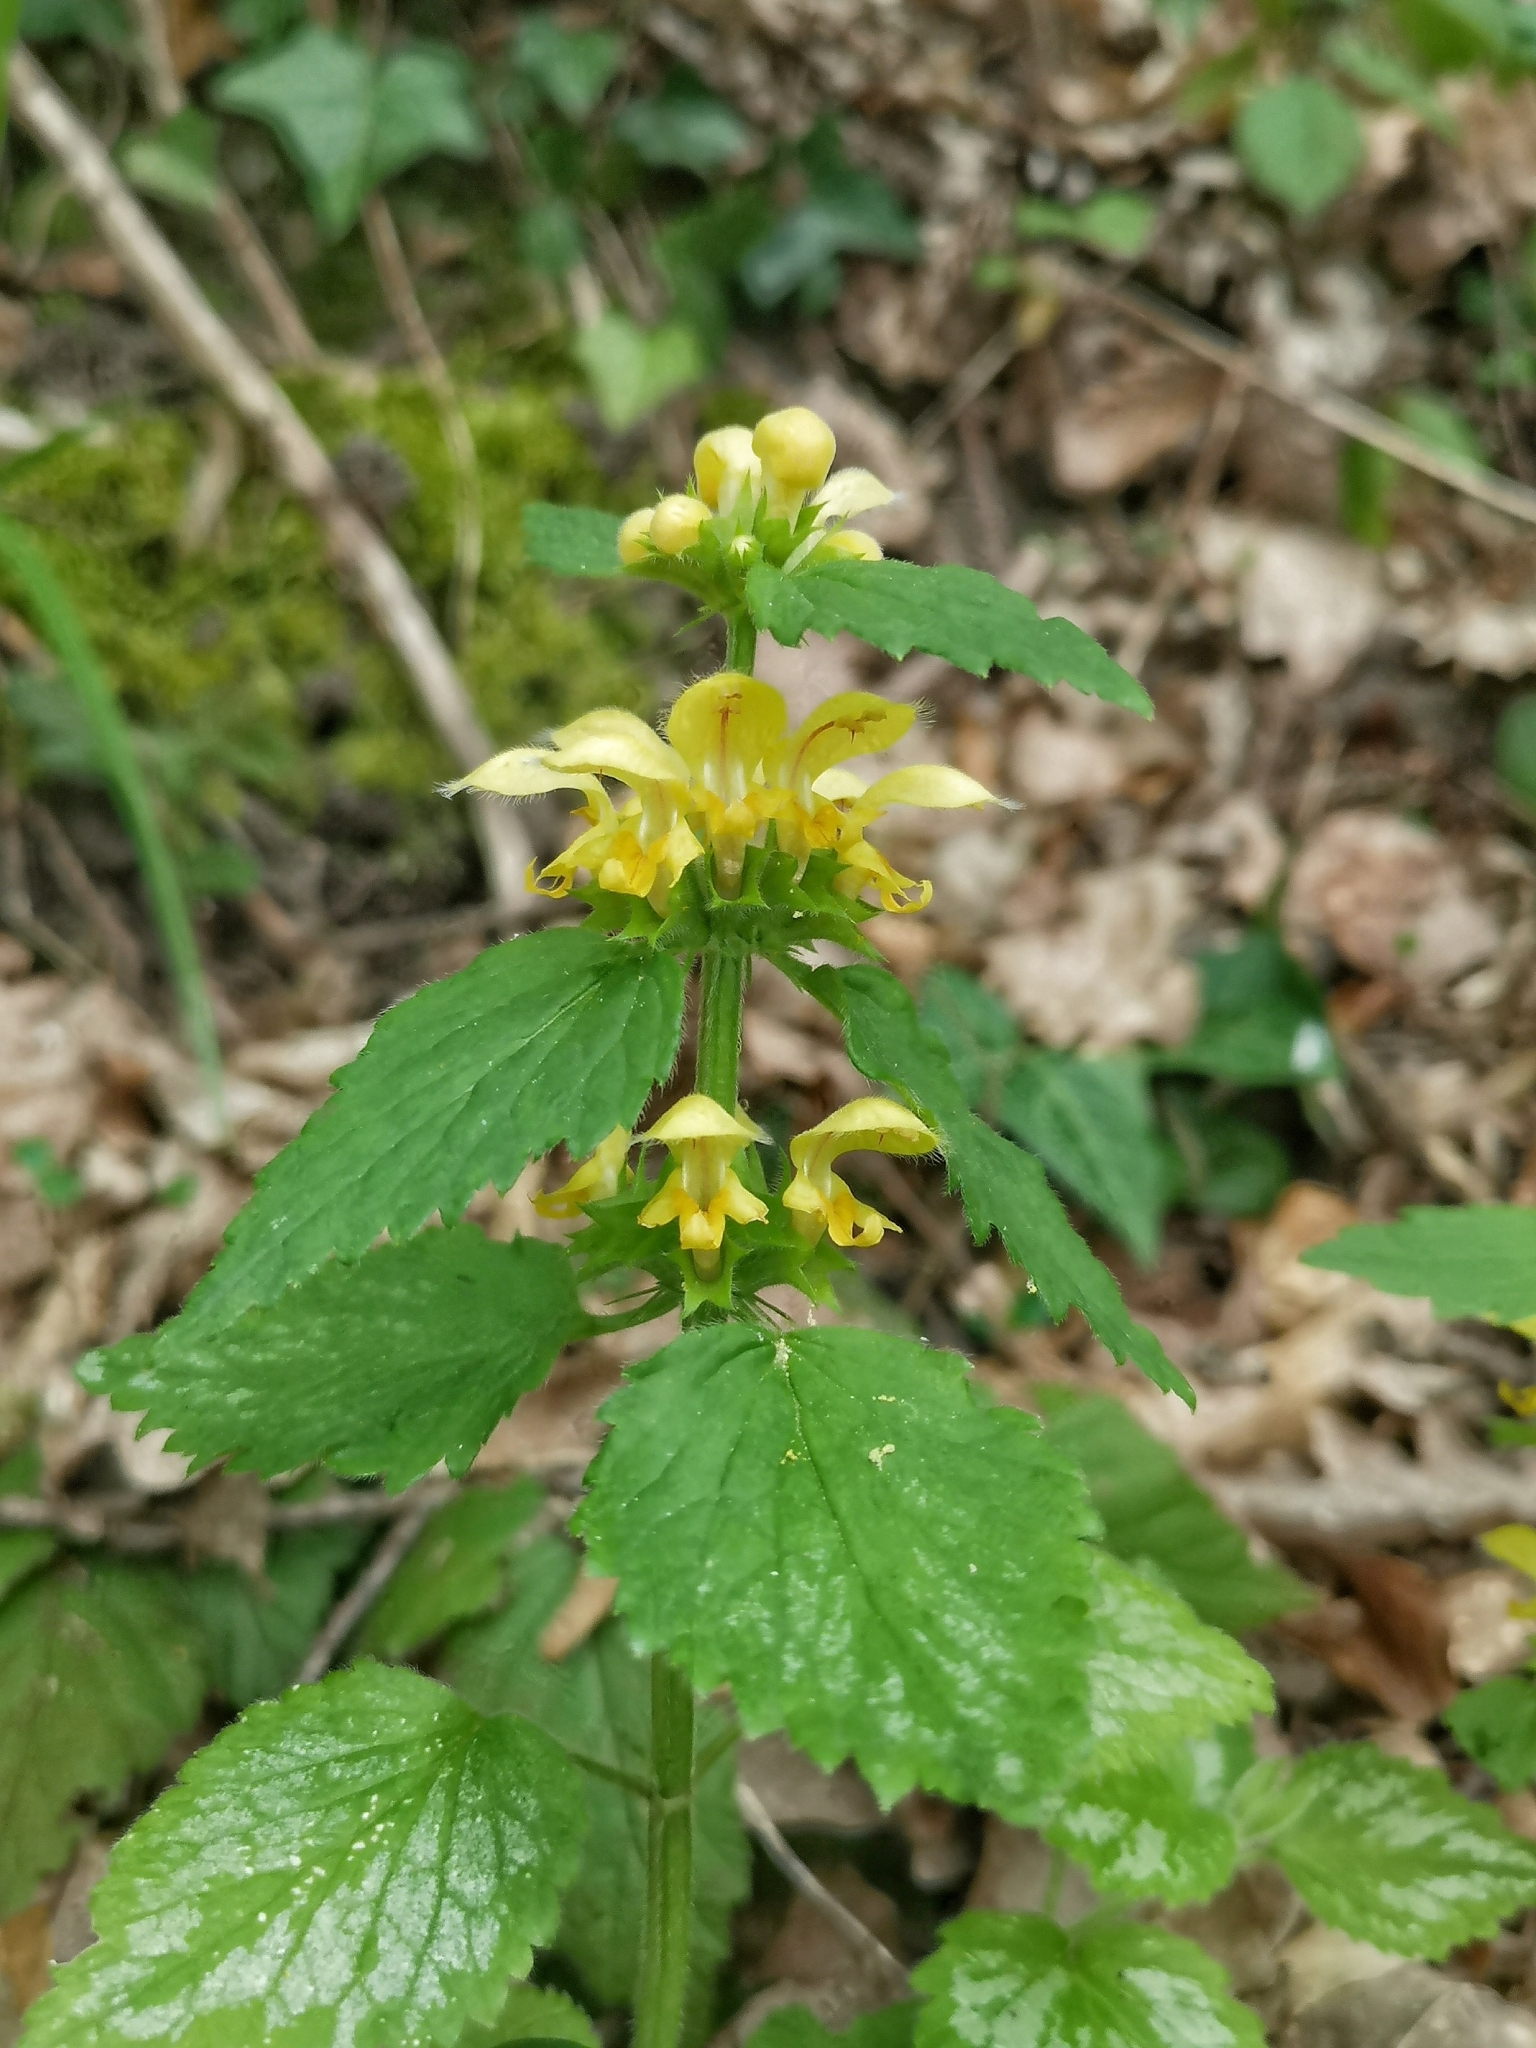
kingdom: Plantae
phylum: Tracheophyta
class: Magnoliopsida
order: Lamiales
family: Lamiaceae
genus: Lamium
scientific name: Lamium galeobdolon
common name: Yellow archangel
